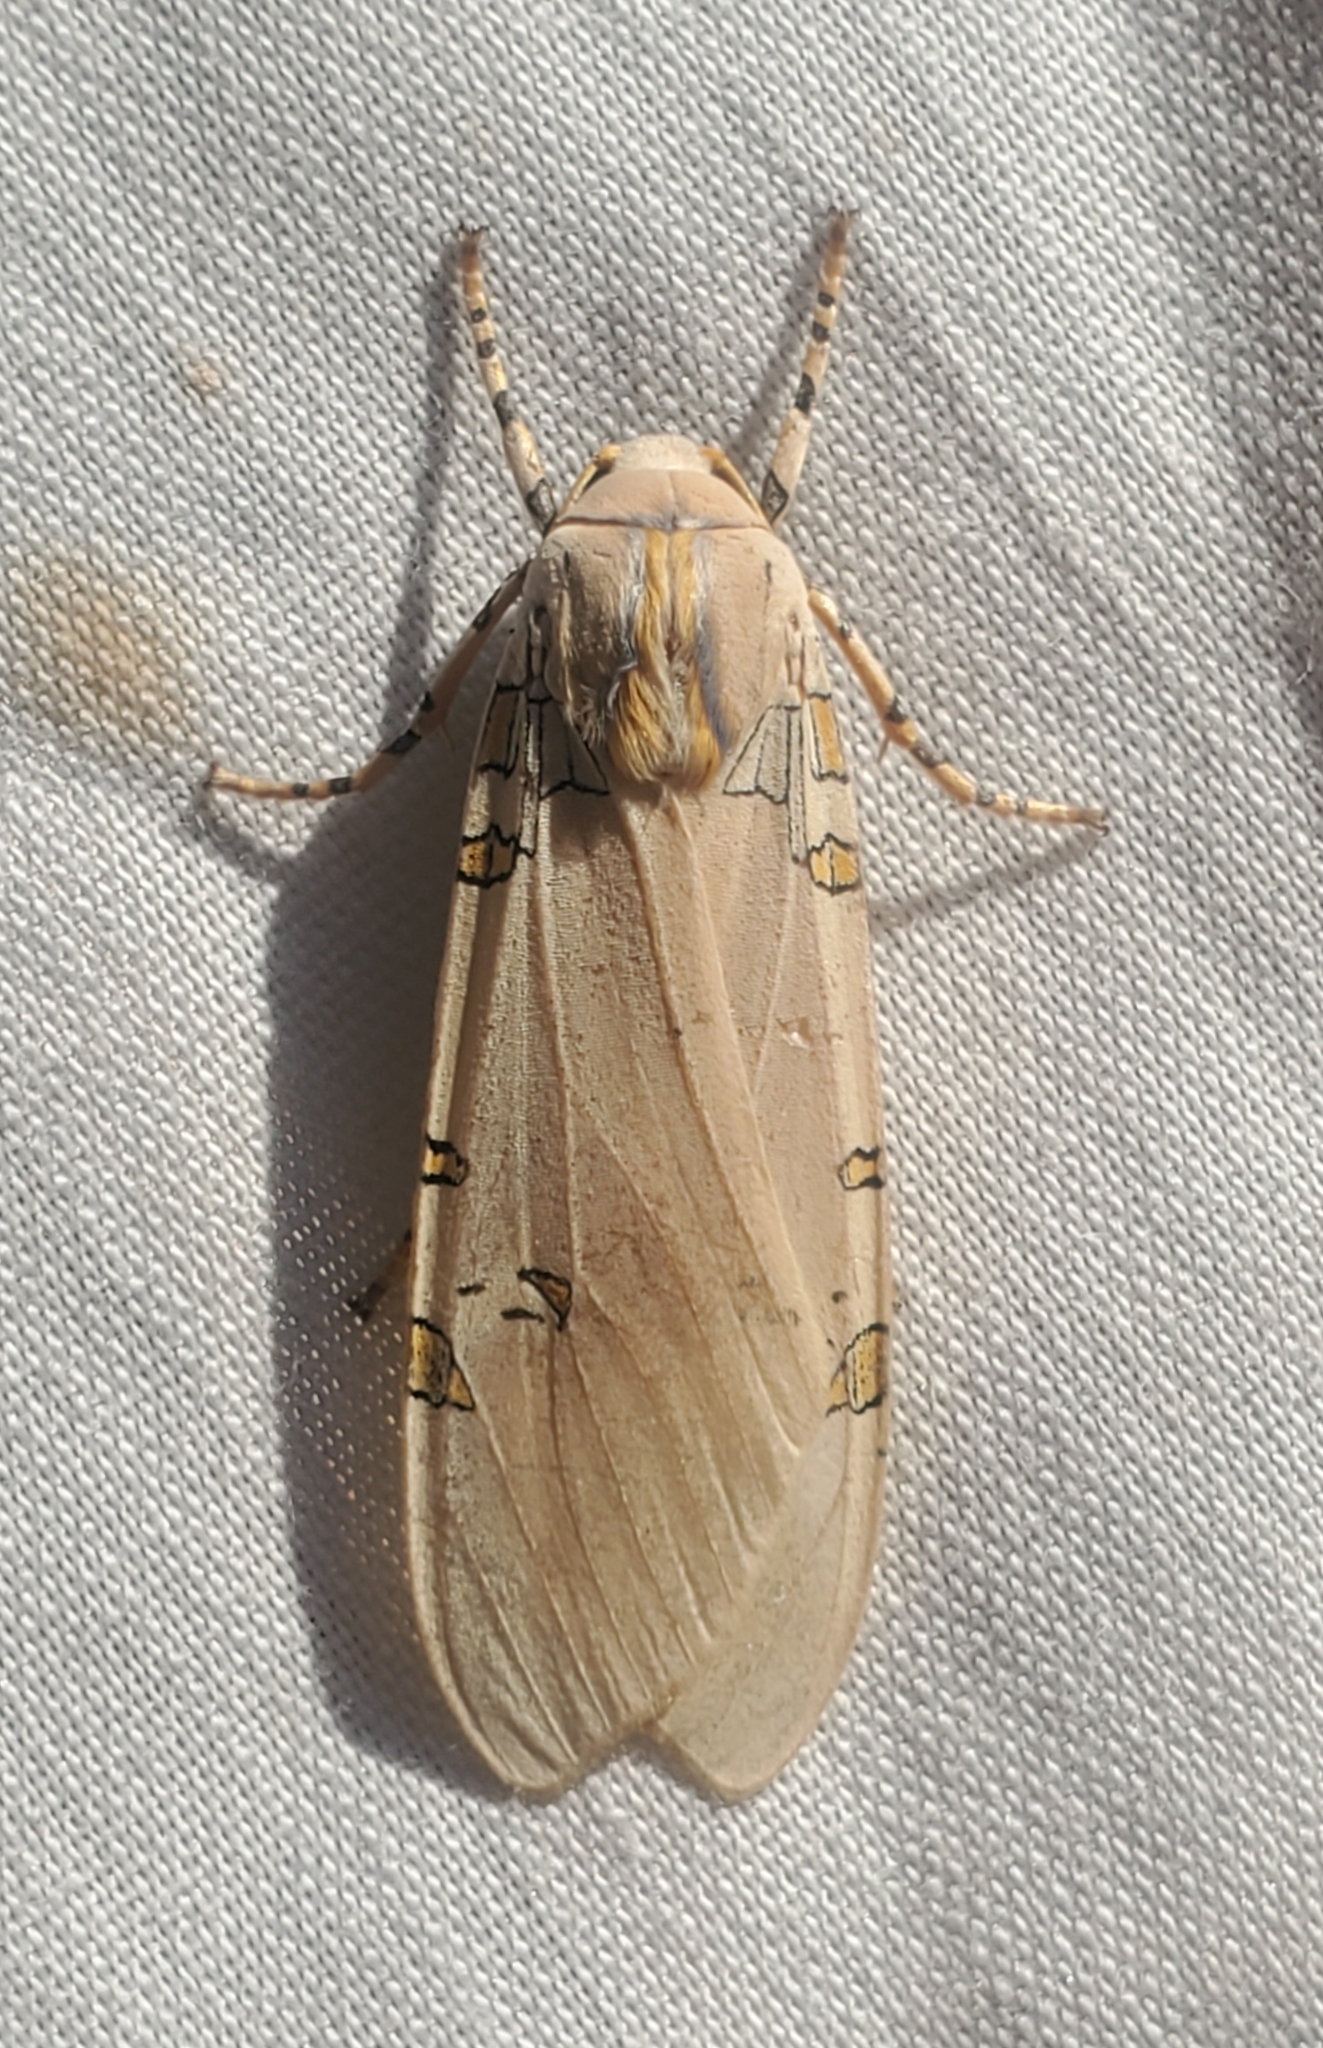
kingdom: Animalia
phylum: Arthropoda
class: Insecta
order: Lepidoptera
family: Erebidae
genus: Halysidota
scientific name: Halysidota davisii
